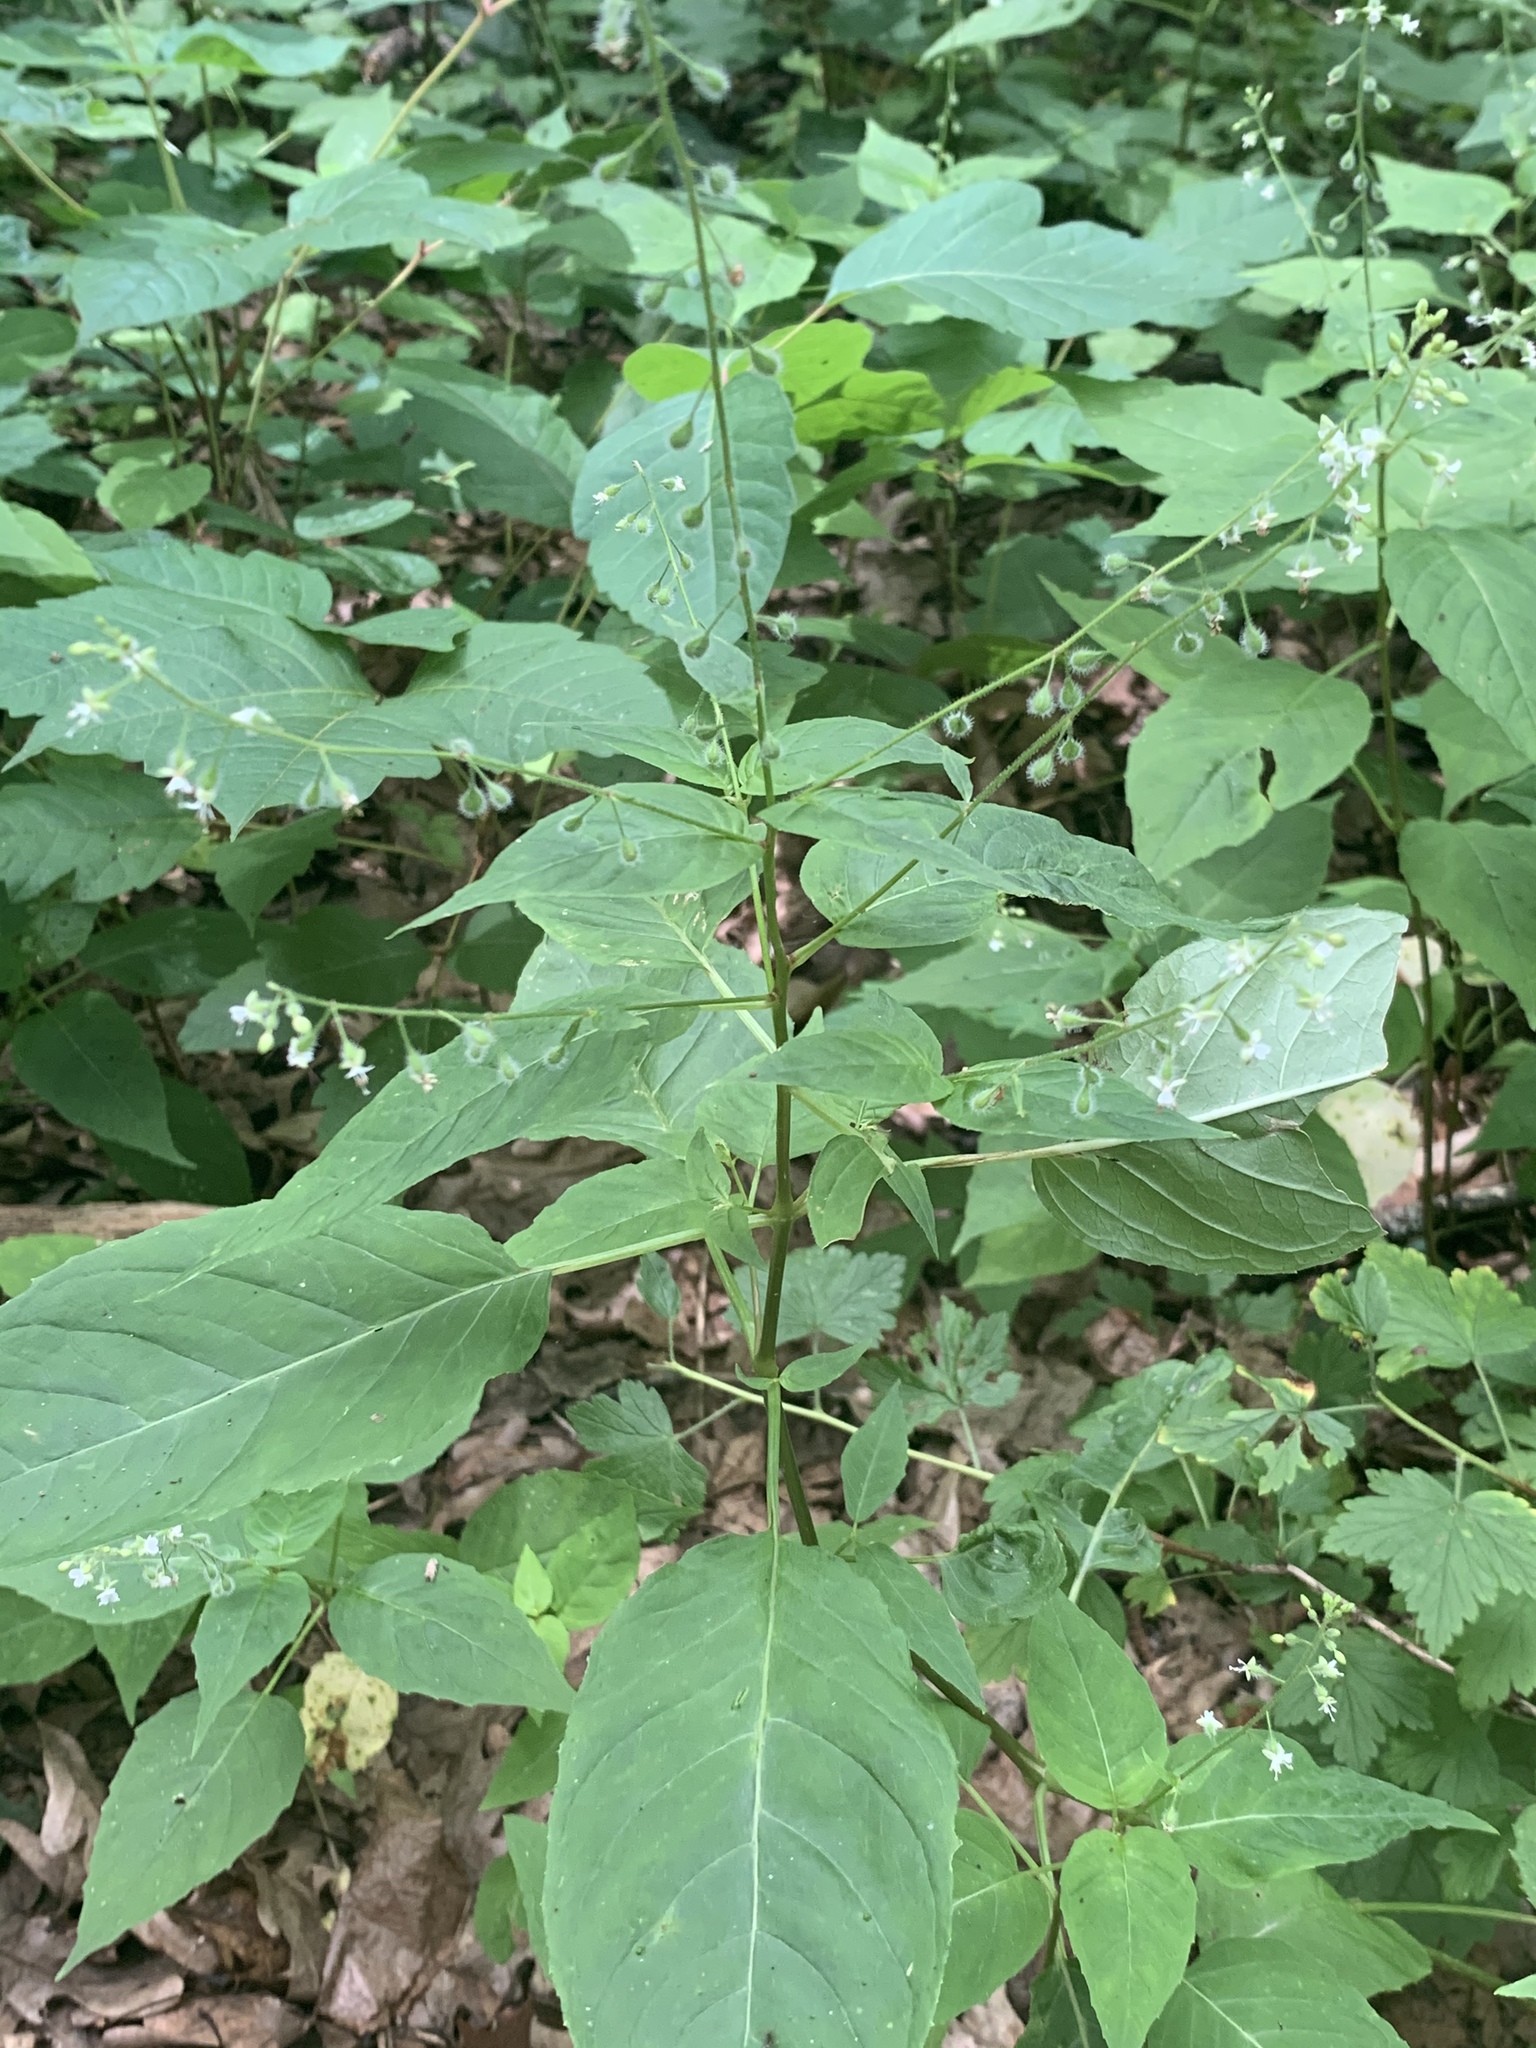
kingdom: Plantae
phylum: Tracheophyta
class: Magnoliopsida
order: Myrtales
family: Onagraceae
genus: Circaea
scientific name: Circaea canadensis
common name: Broad-leaved enchanter's nightshade
